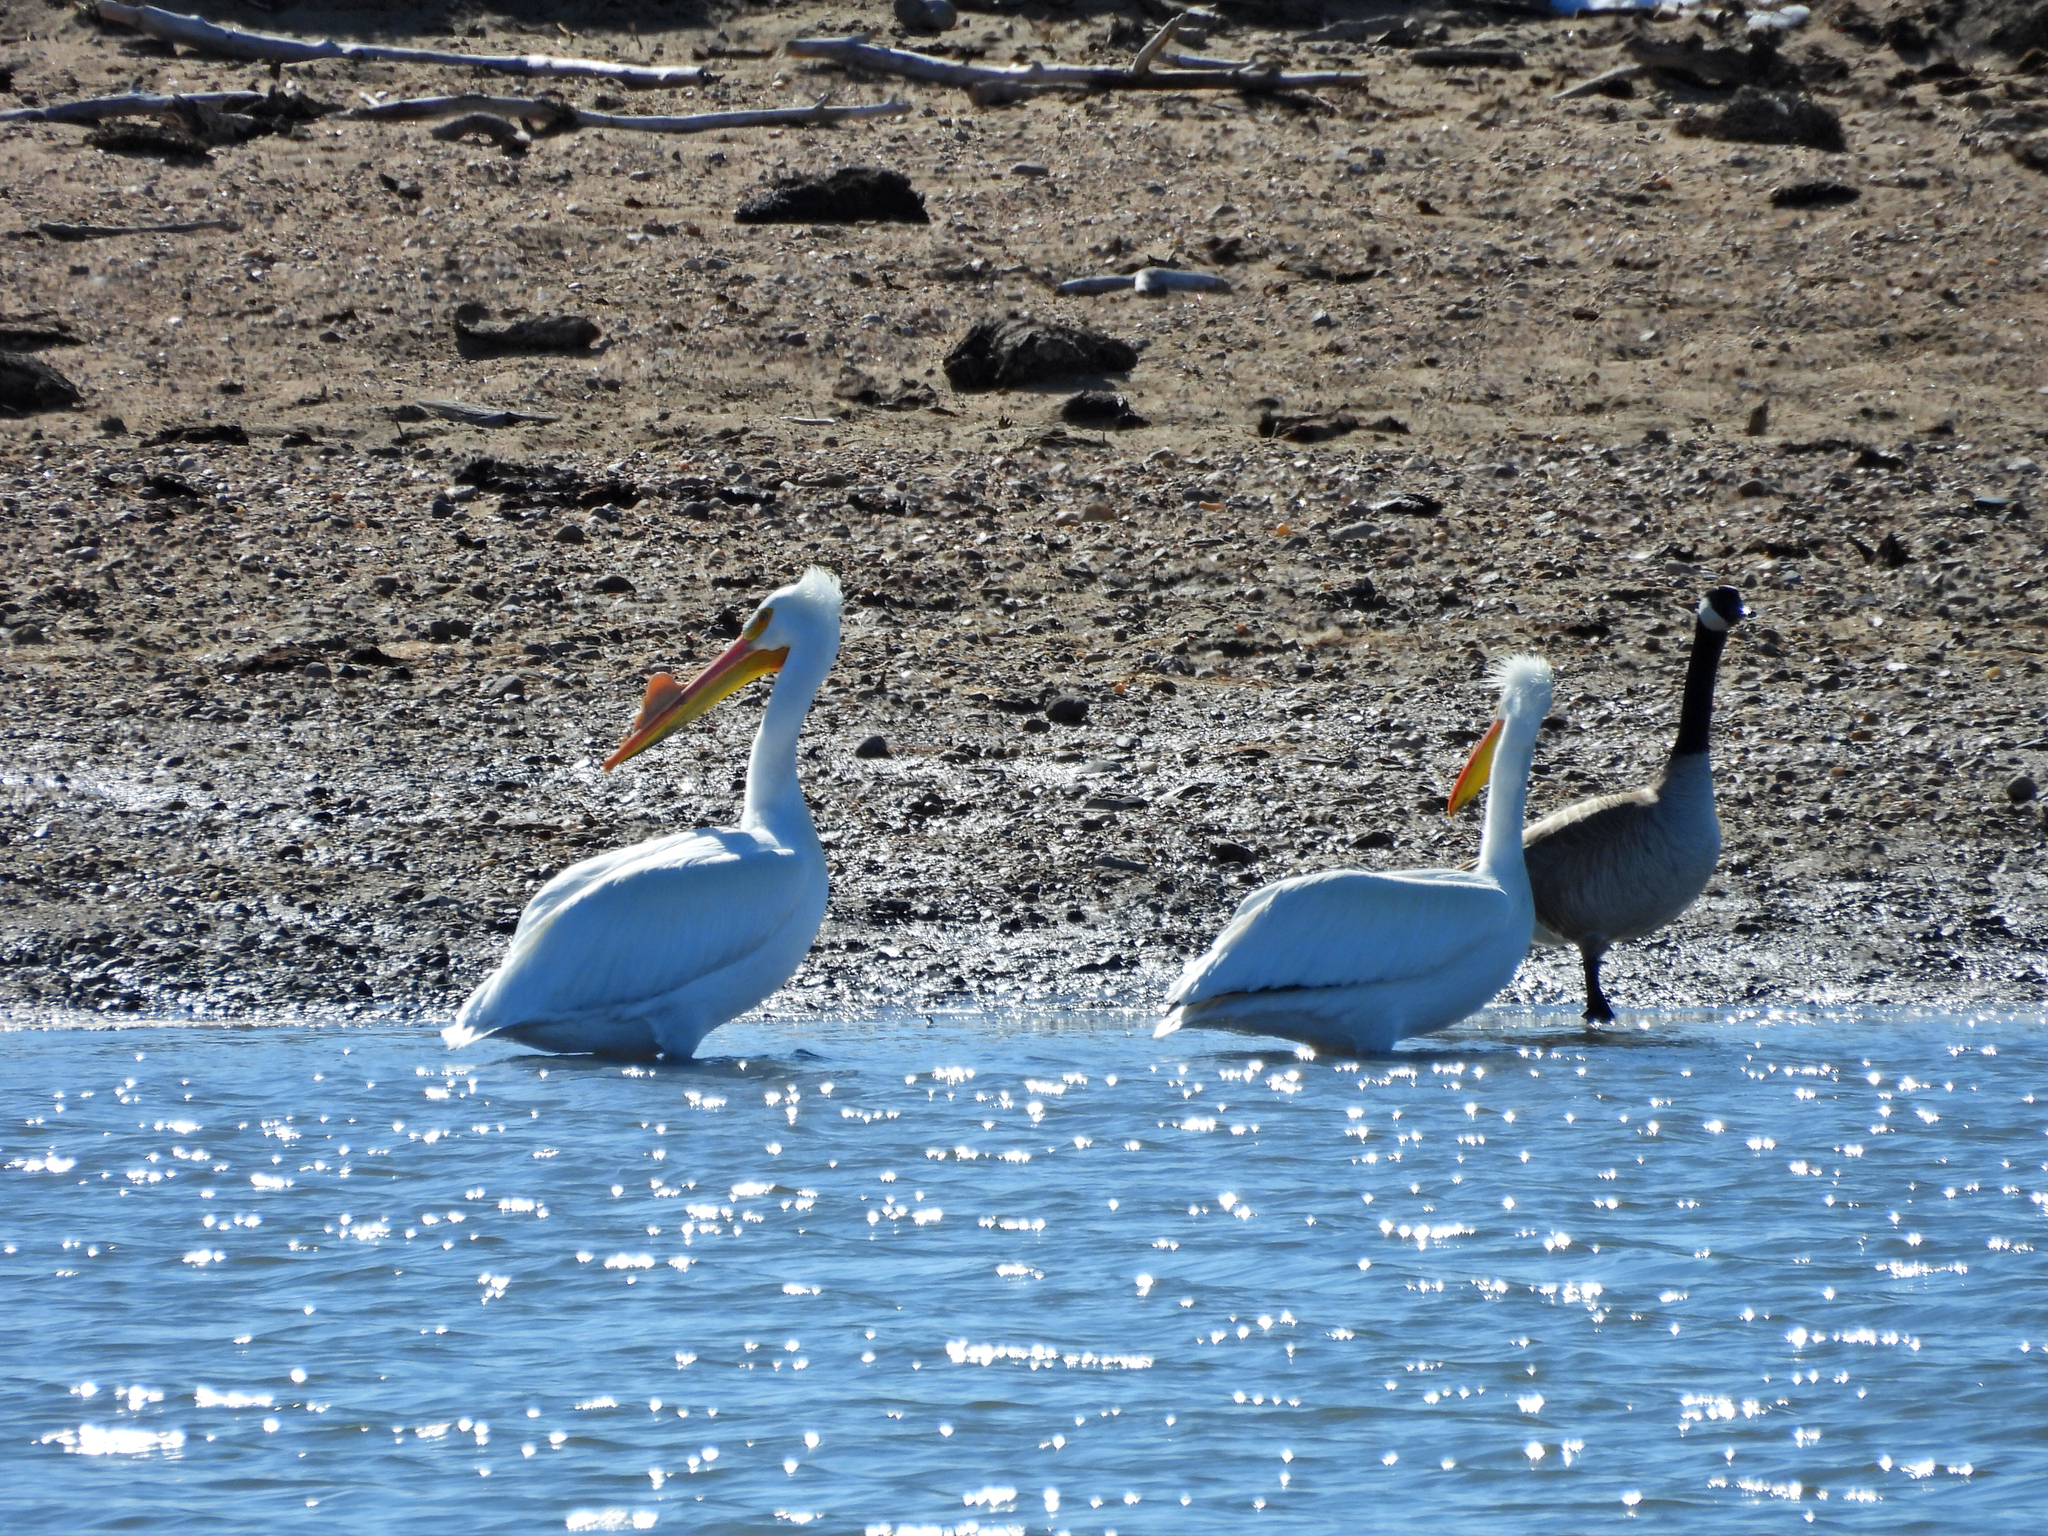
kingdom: Animalia
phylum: Chordata
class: Aves
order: Pelecaniformes
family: Pelecanidae
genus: Pelecanus
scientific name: Pelecanus erythrorhynchos
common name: American white pelican
